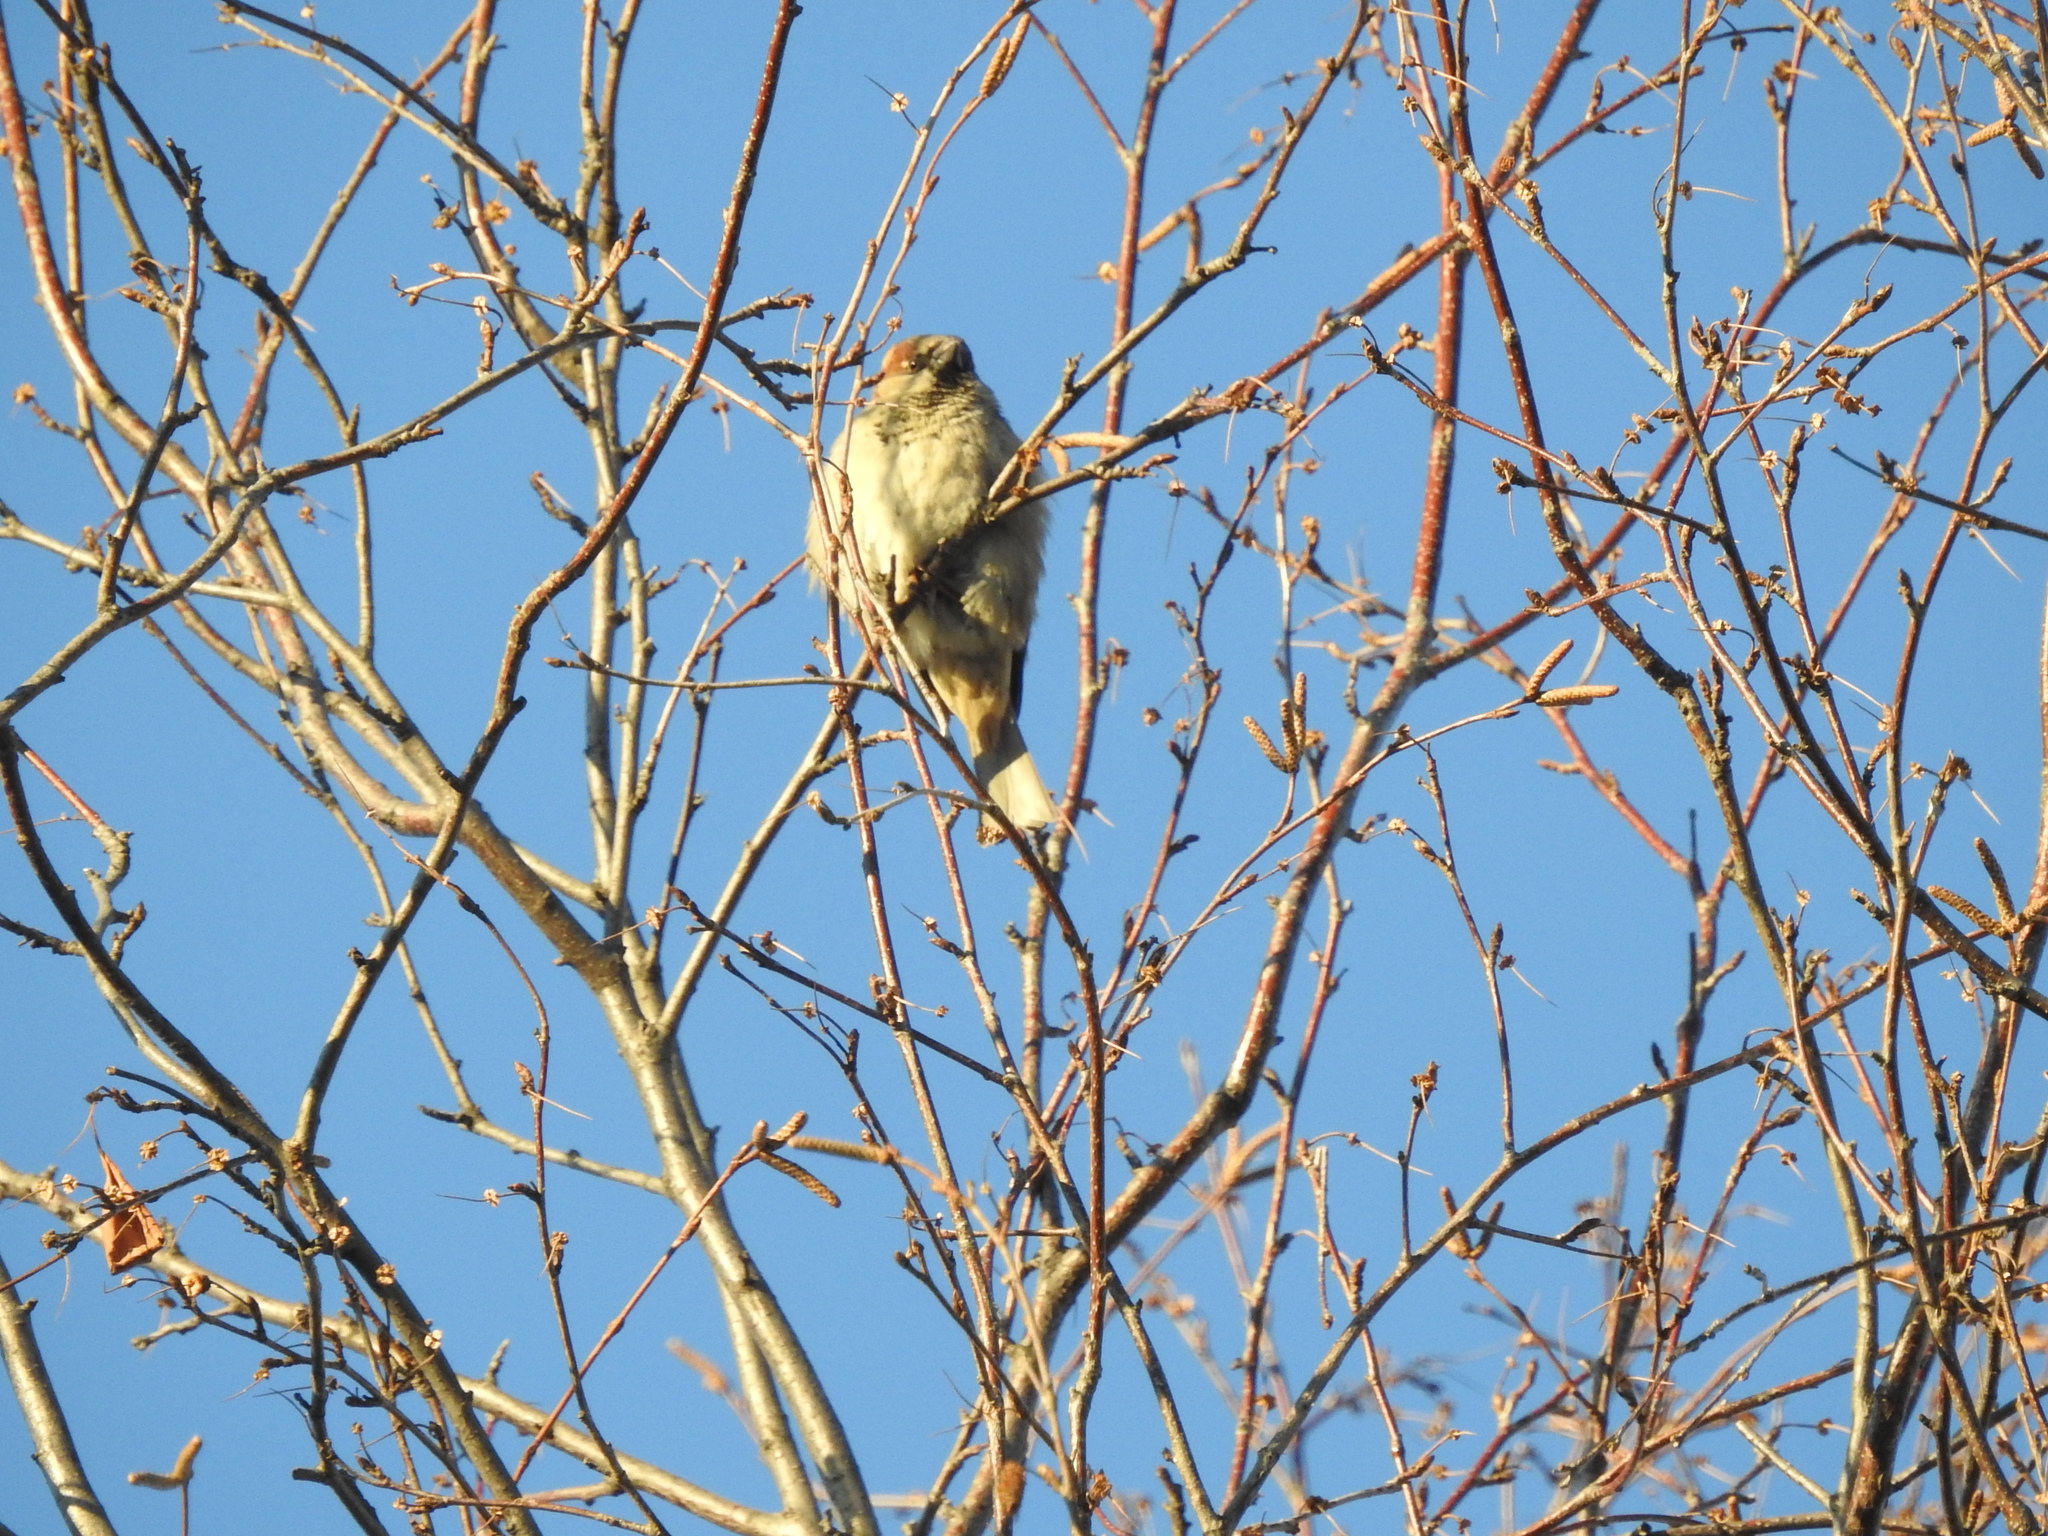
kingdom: Animalia
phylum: Chordata
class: Aves
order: Passeriformes
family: Passeridae
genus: Passer
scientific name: Passer domesticus
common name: House sparrow
